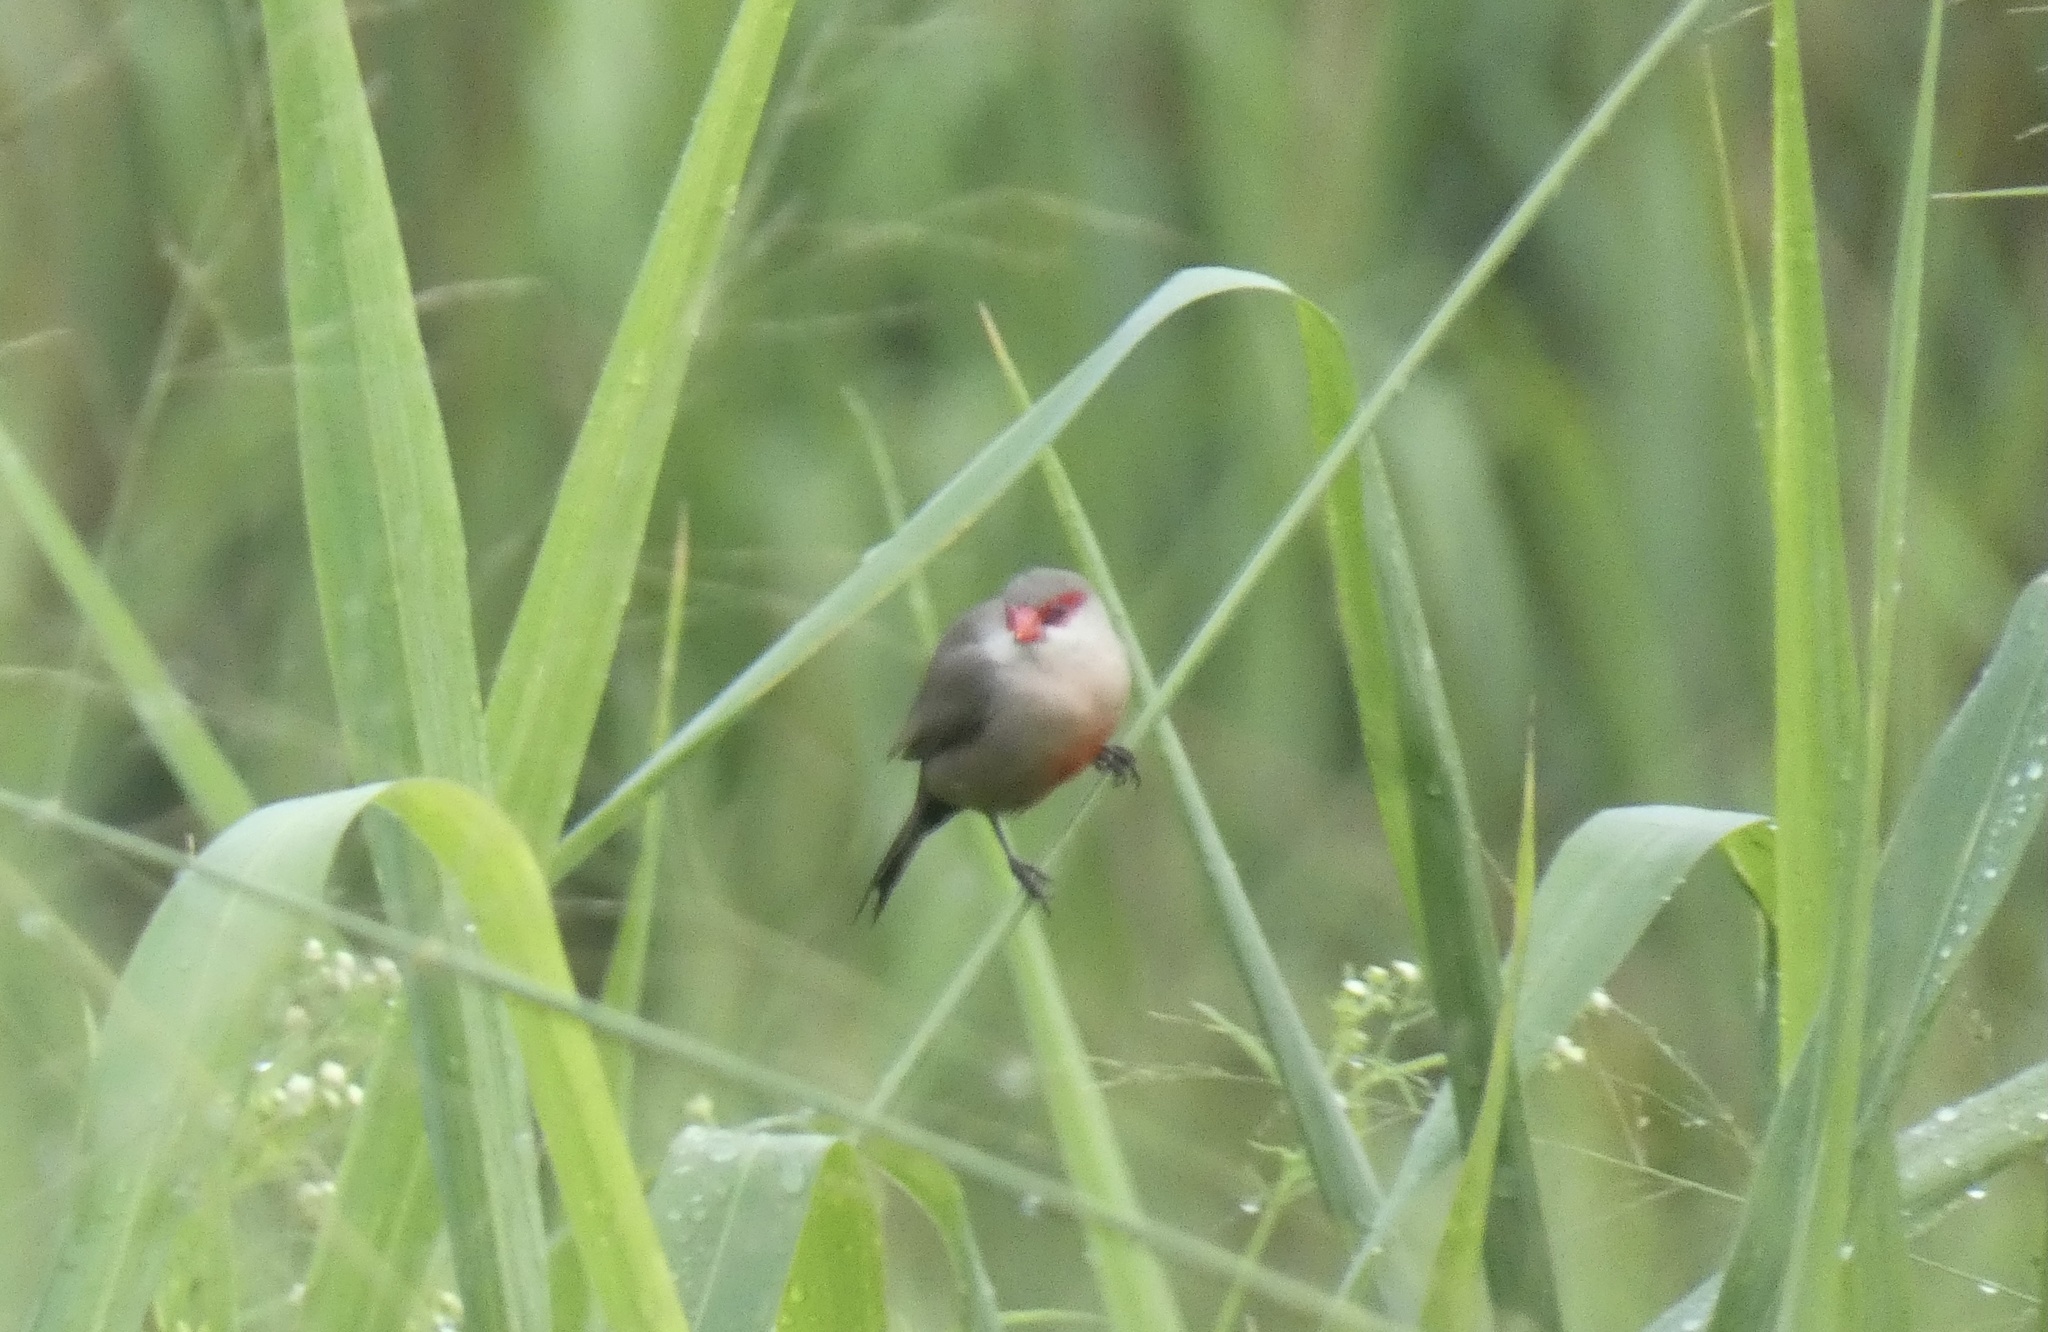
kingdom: Animalia
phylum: Chordata
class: Aves
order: Passeriformes
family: Estrildidae
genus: Estrilda
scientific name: Estrilda astrild
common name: Common waxbill
